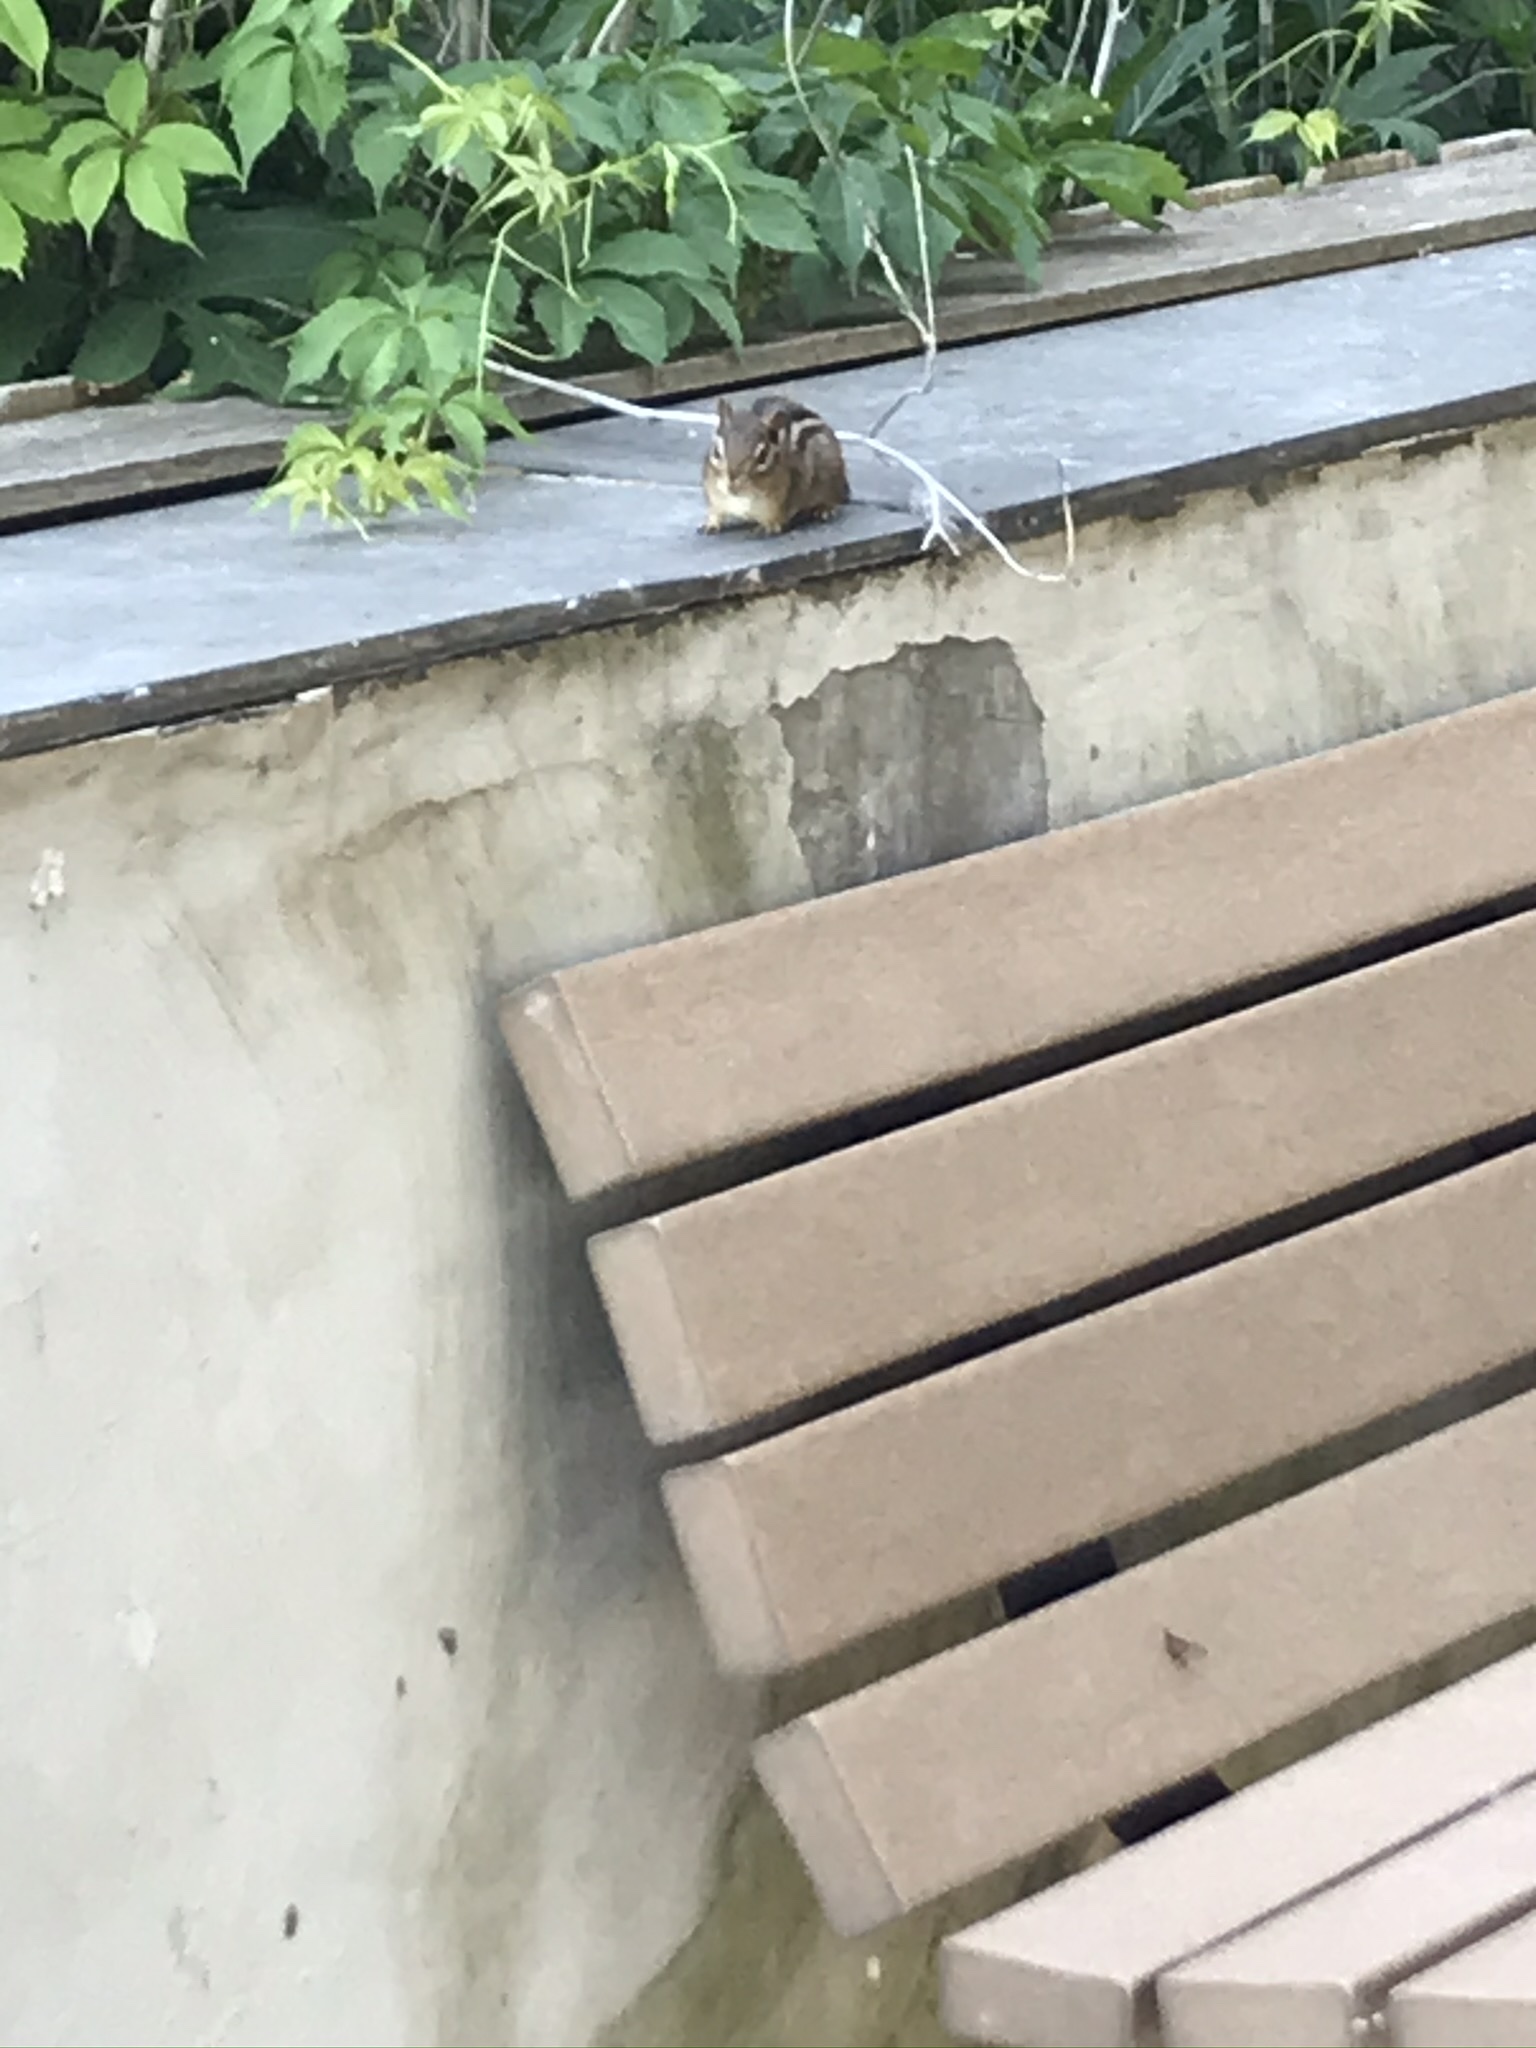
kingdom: Animalia
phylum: Chordata
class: Mammalia
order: Rodentia
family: Sciuridae
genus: Tamias
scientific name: Tamias striatus
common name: Eastern chipmunk
